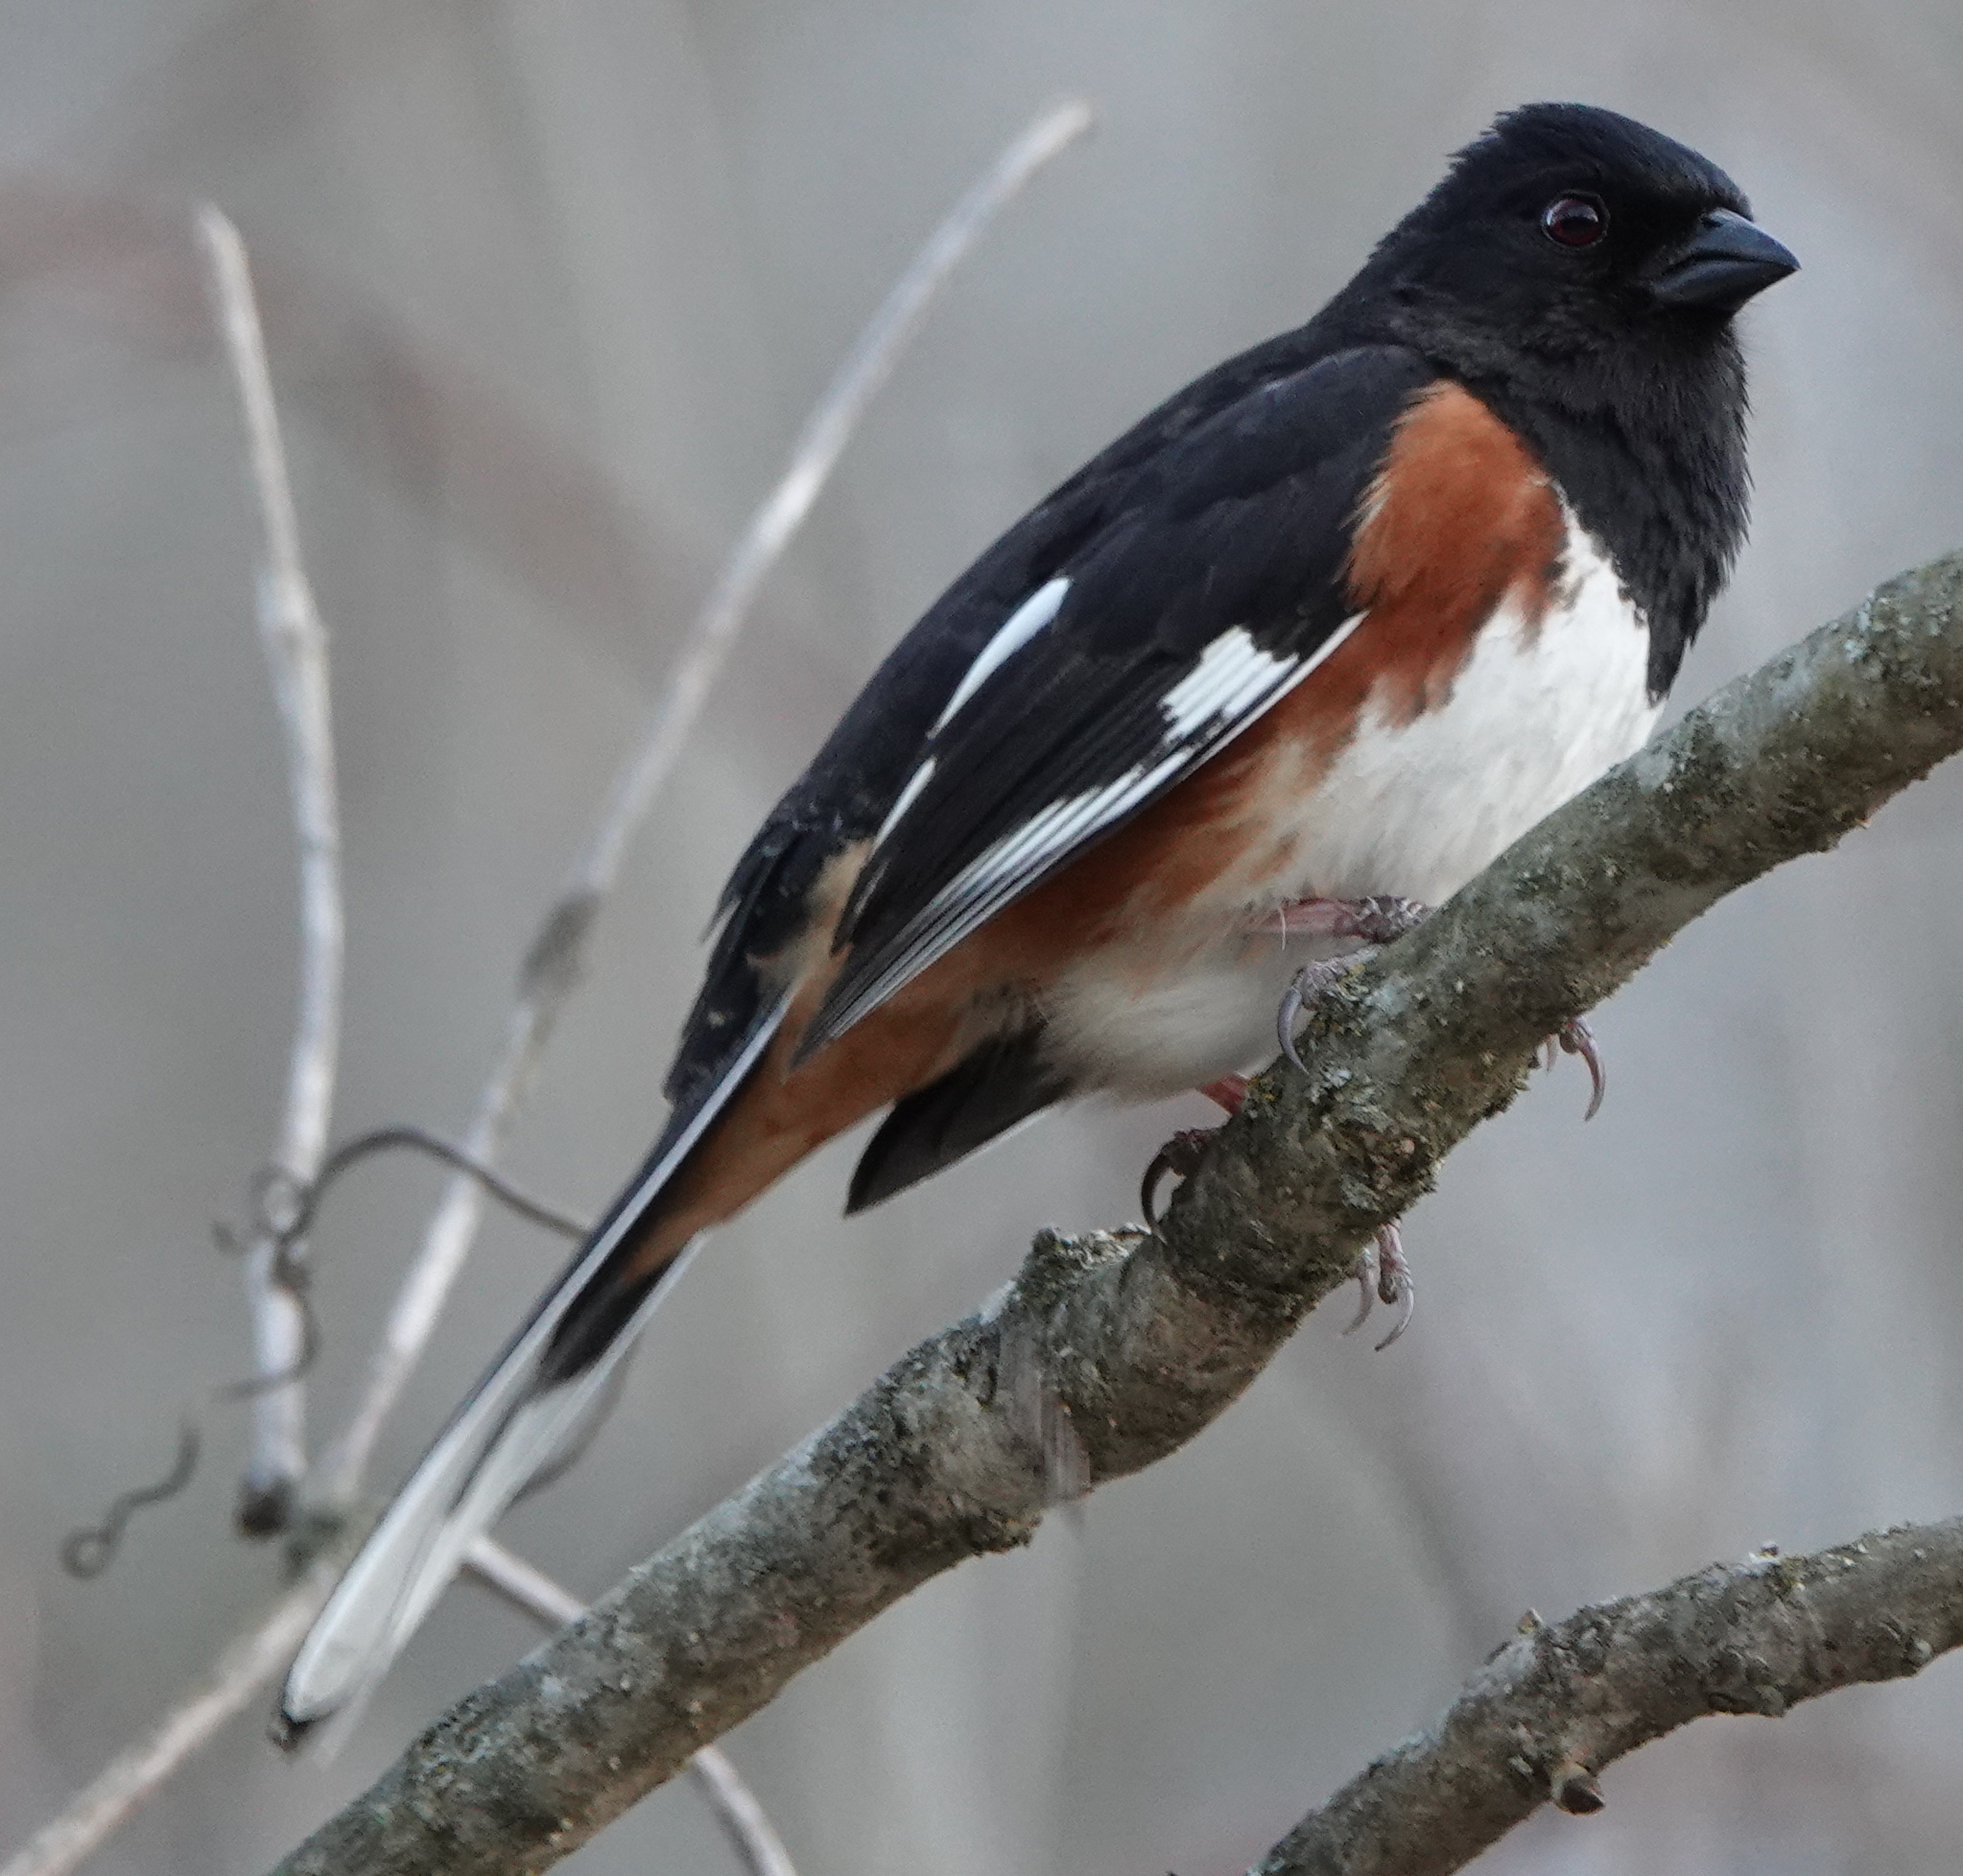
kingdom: Animalia
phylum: Chordata
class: Aves
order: Passeriformes
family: Passerellidae
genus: Pipilo
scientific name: Pipilo erythrophthalmus
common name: Eastern towhee
